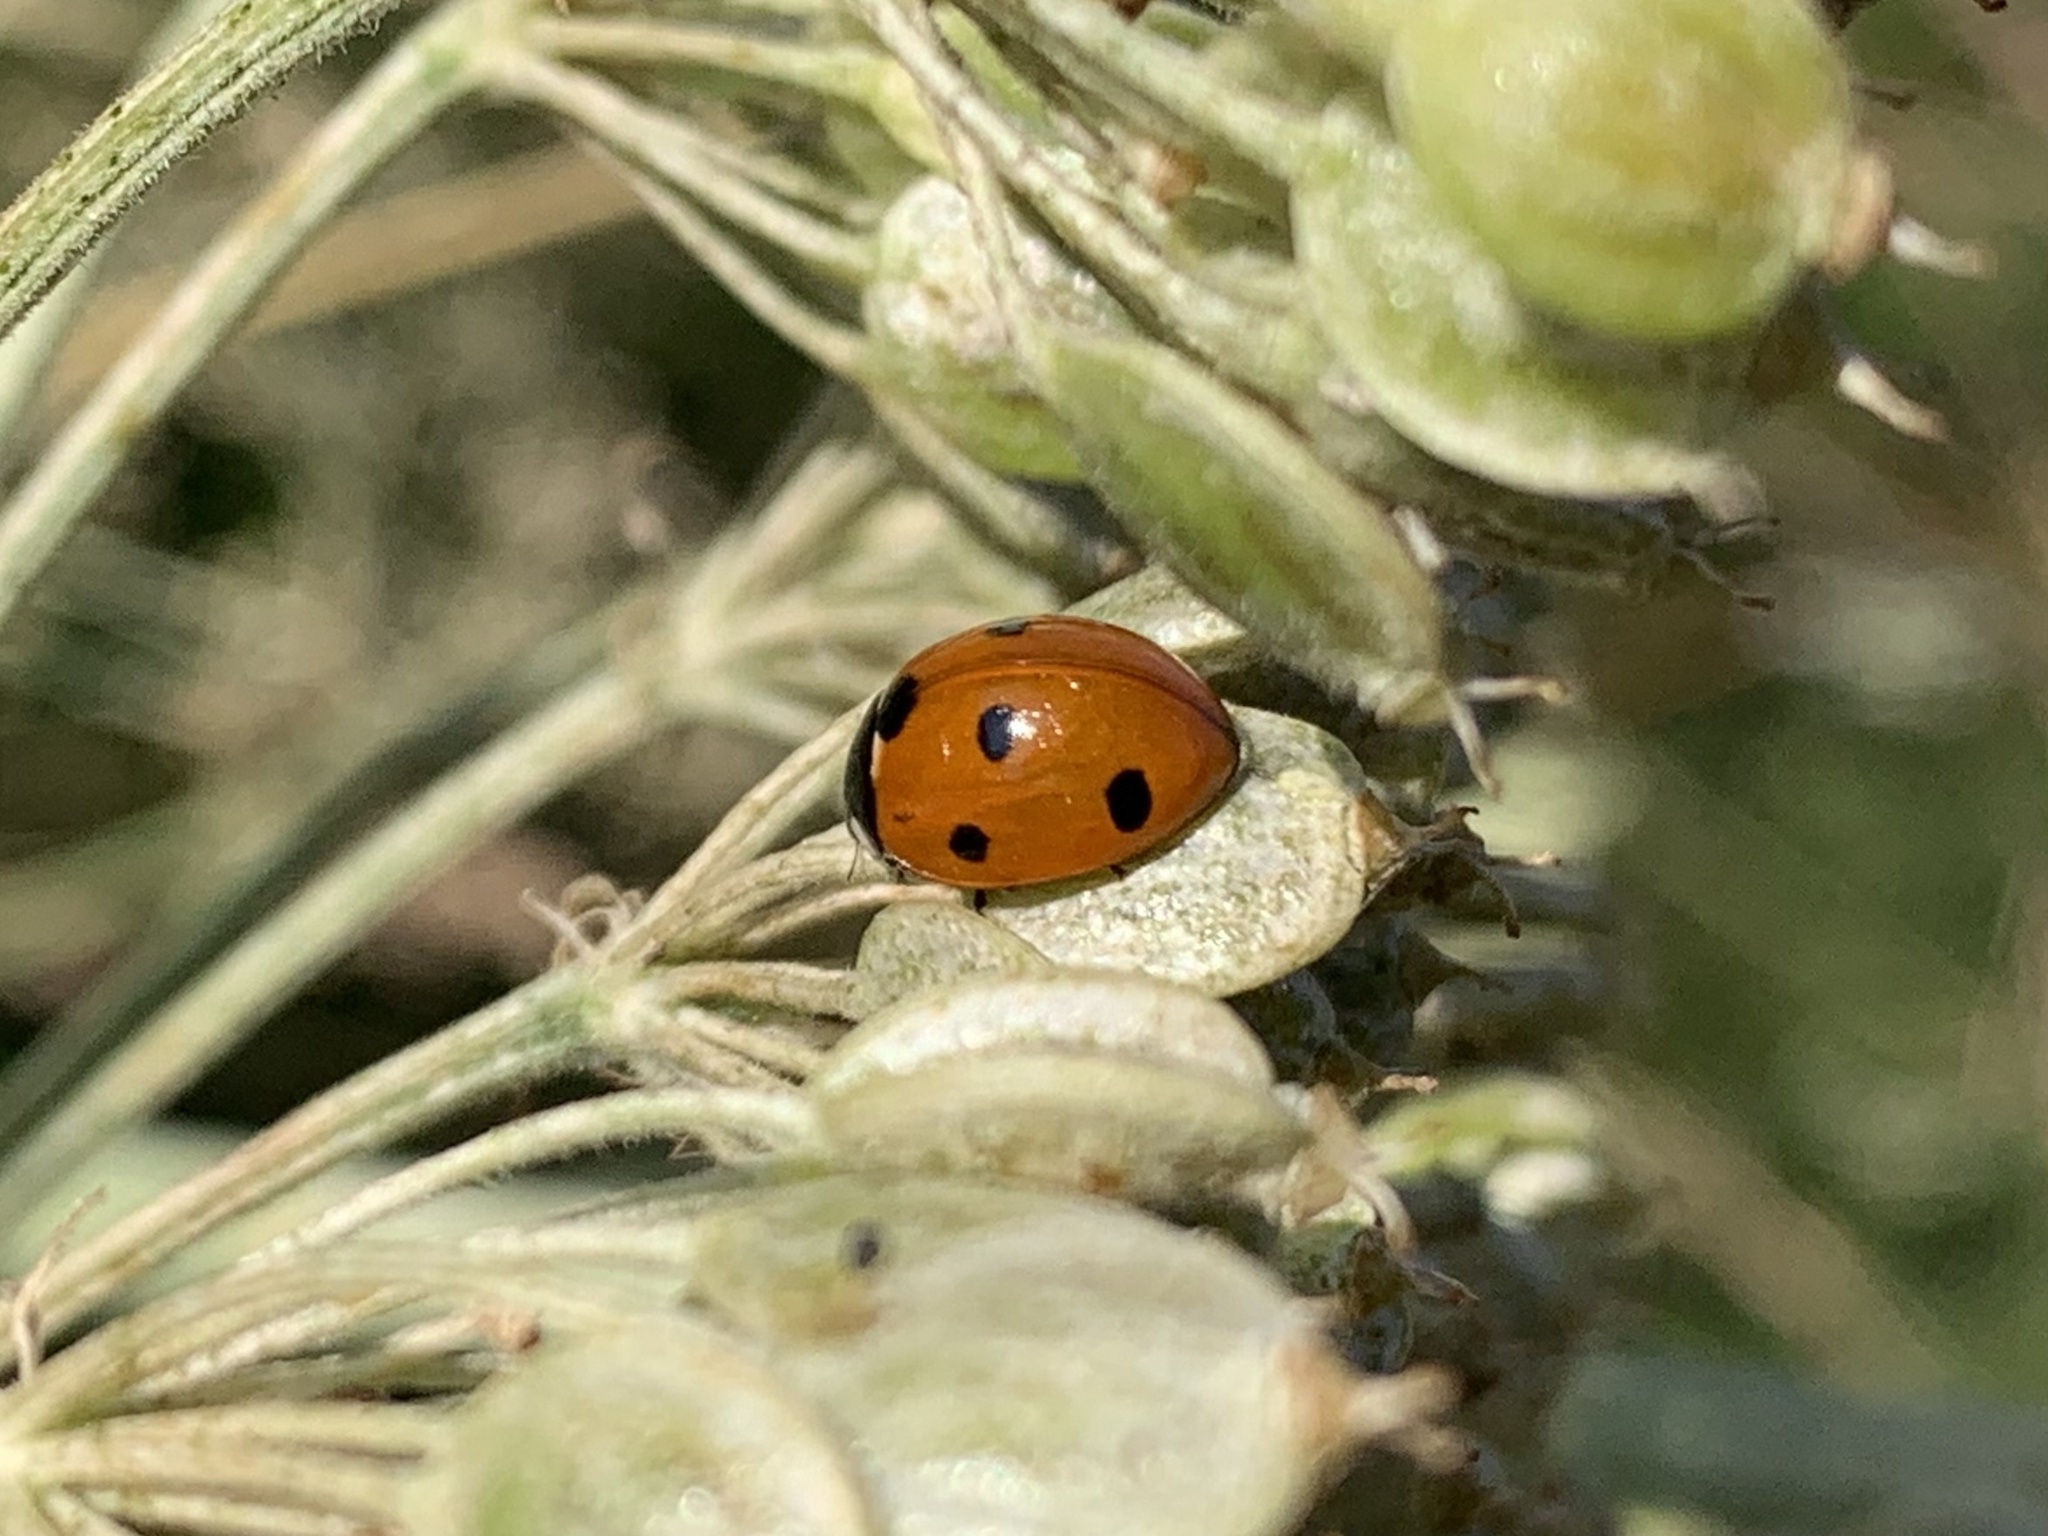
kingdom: Animalia
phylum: Arthropoda
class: Insecta
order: Coleoptera
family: Coccinellidae
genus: Coccinella
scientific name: Coccinella septempunctata
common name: Sevenspotted lady beetle
